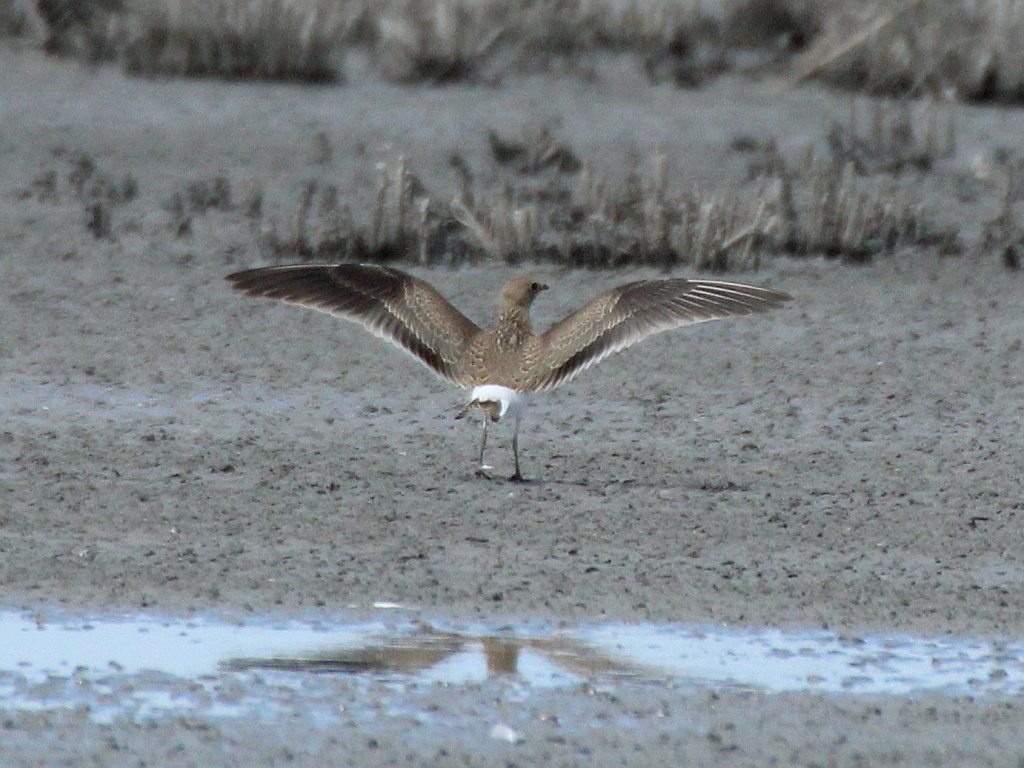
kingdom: Animalia
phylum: Chordata
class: Aves
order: Charadriiformes
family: Glareolidae
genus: Glareola
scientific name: Glareola pratincola
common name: Collared pratincole
